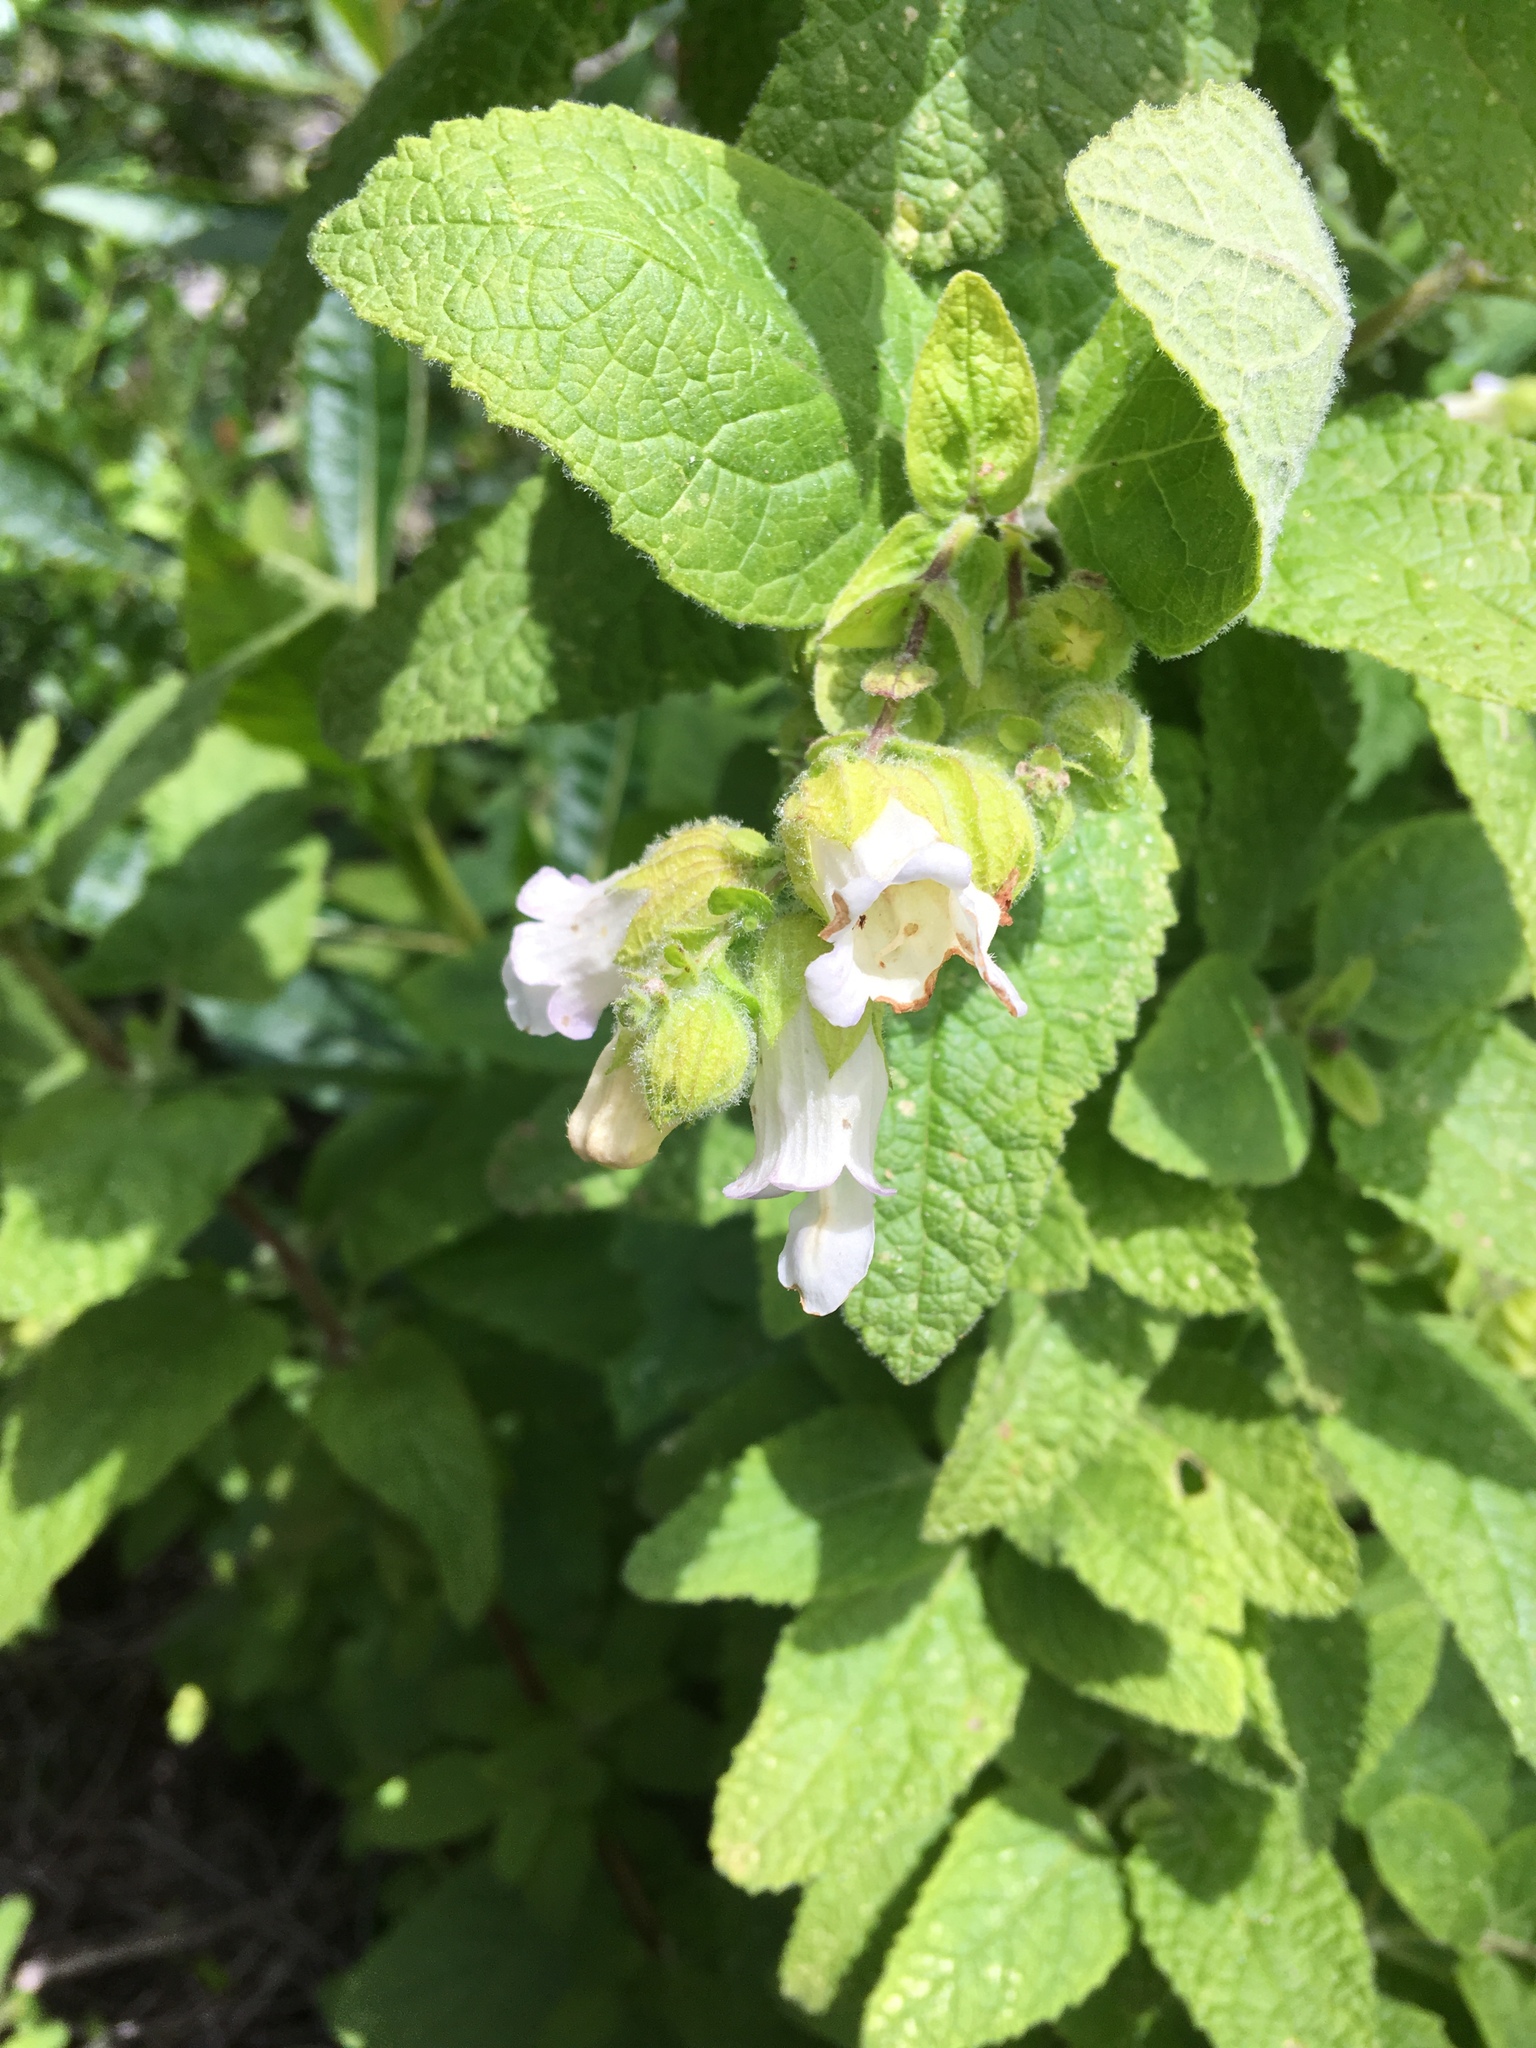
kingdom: Plantae
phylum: Tracheophyta
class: Magnoliopsida
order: Lamiales
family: Lamiaceae
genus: Lepechinia
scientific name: Lepechinia calycina
